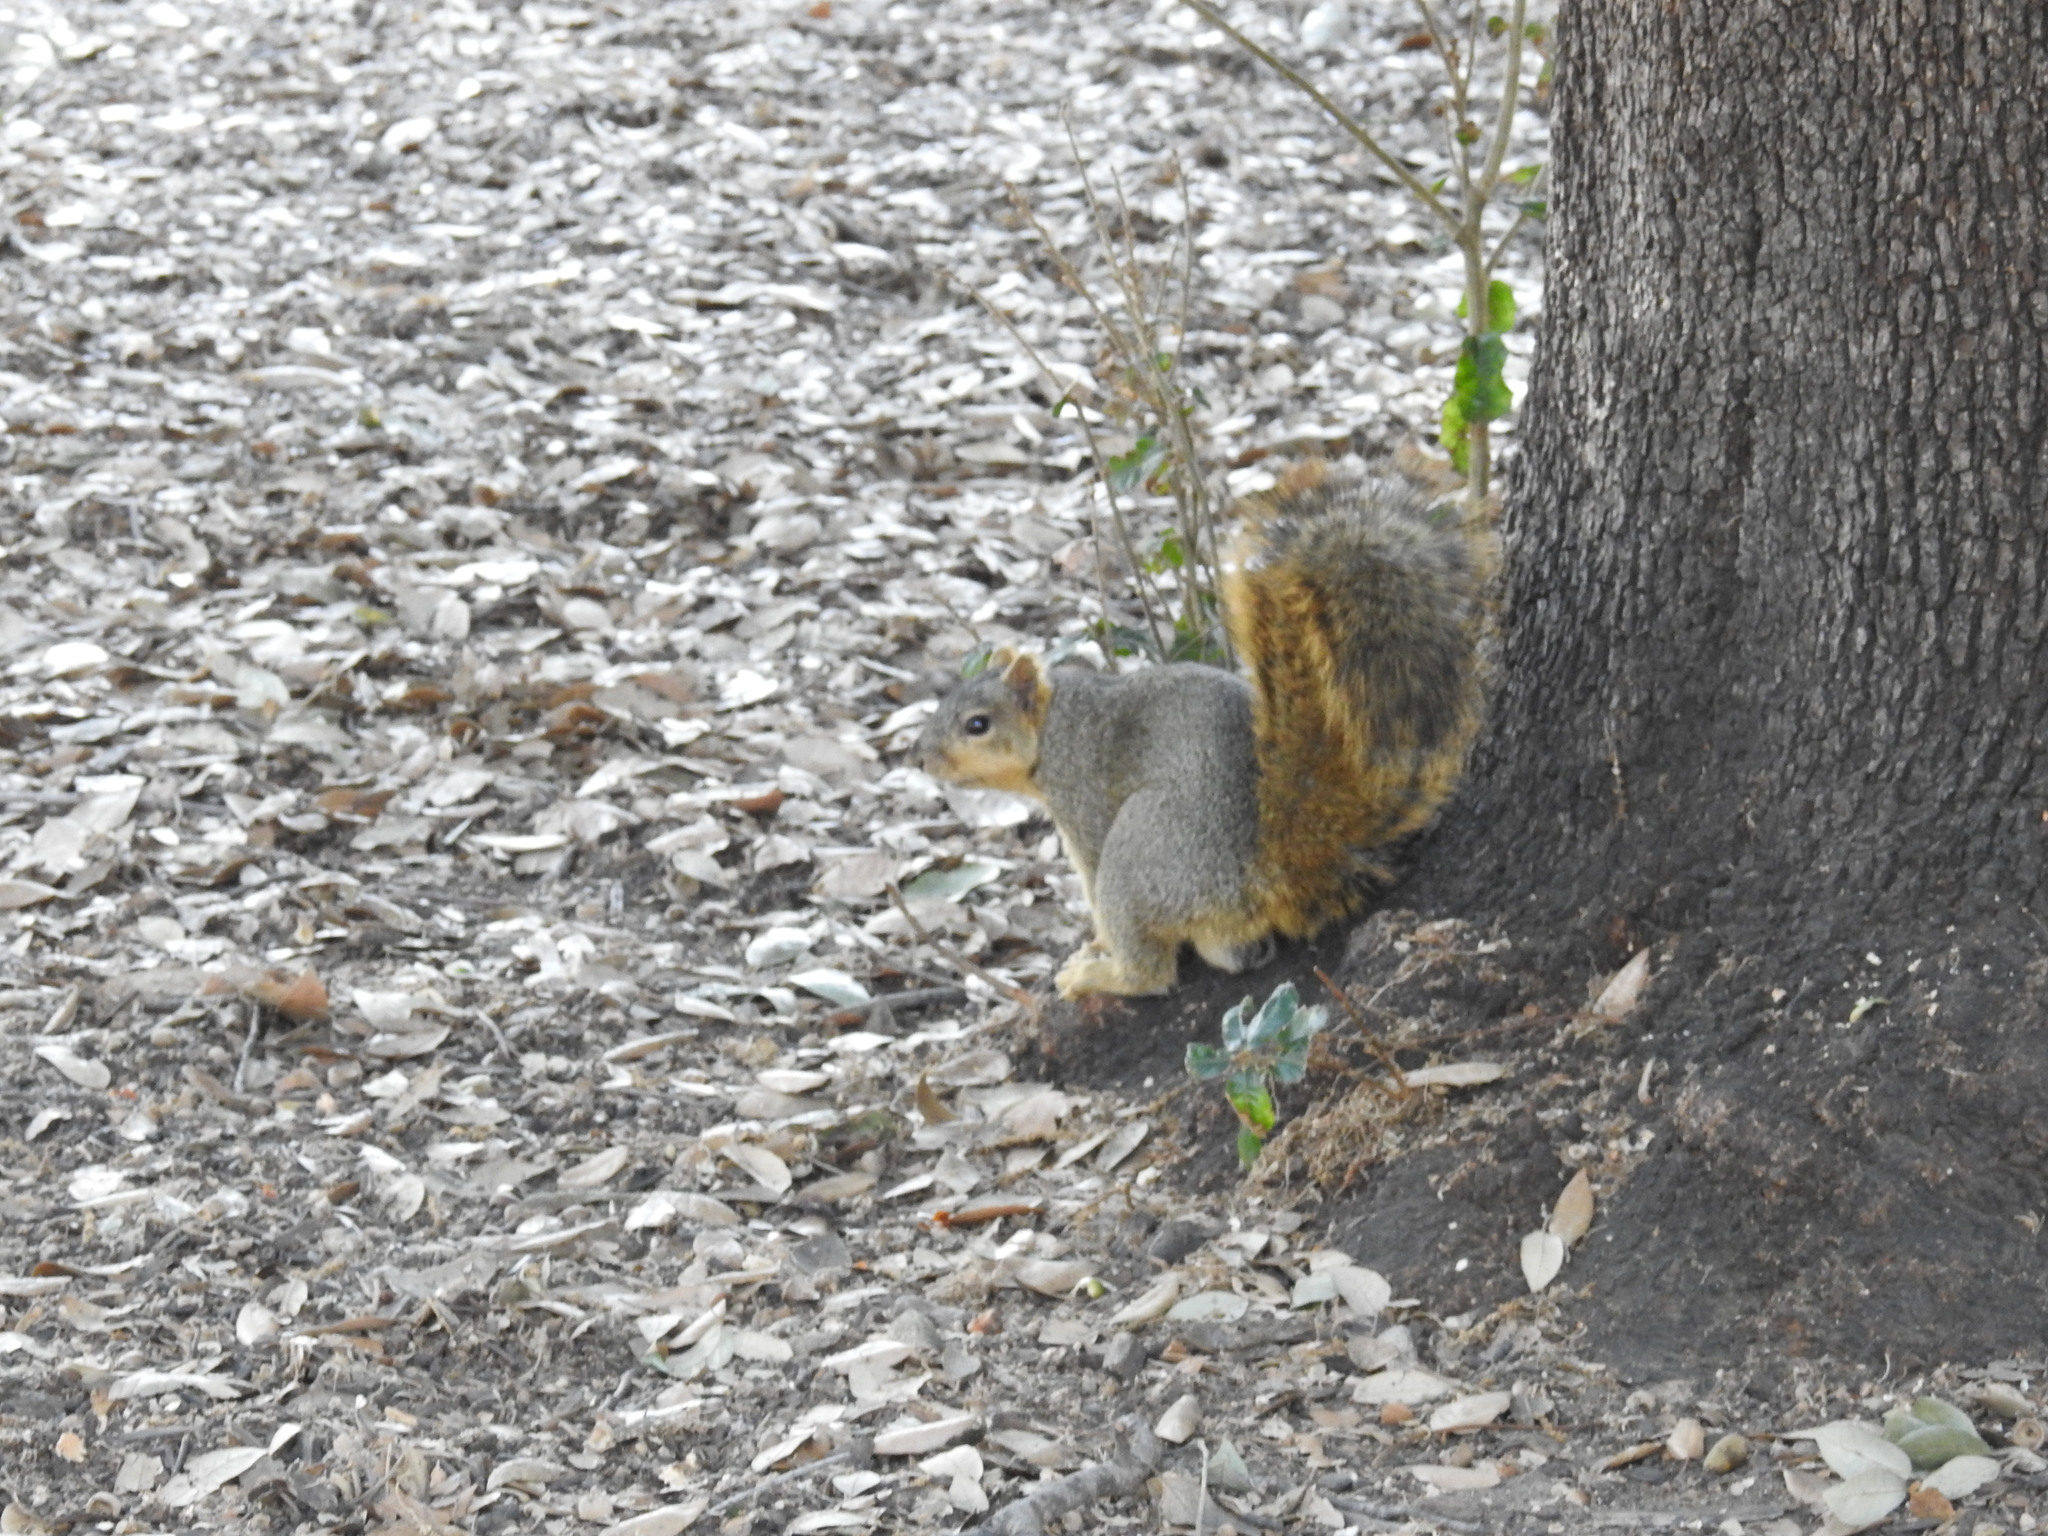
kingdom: Animalia
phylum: Chordata
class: Mammalia
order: Rodentia
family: Sciuridae
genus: Sciurus
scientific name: Sciurus niger
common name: Fox squirrel
